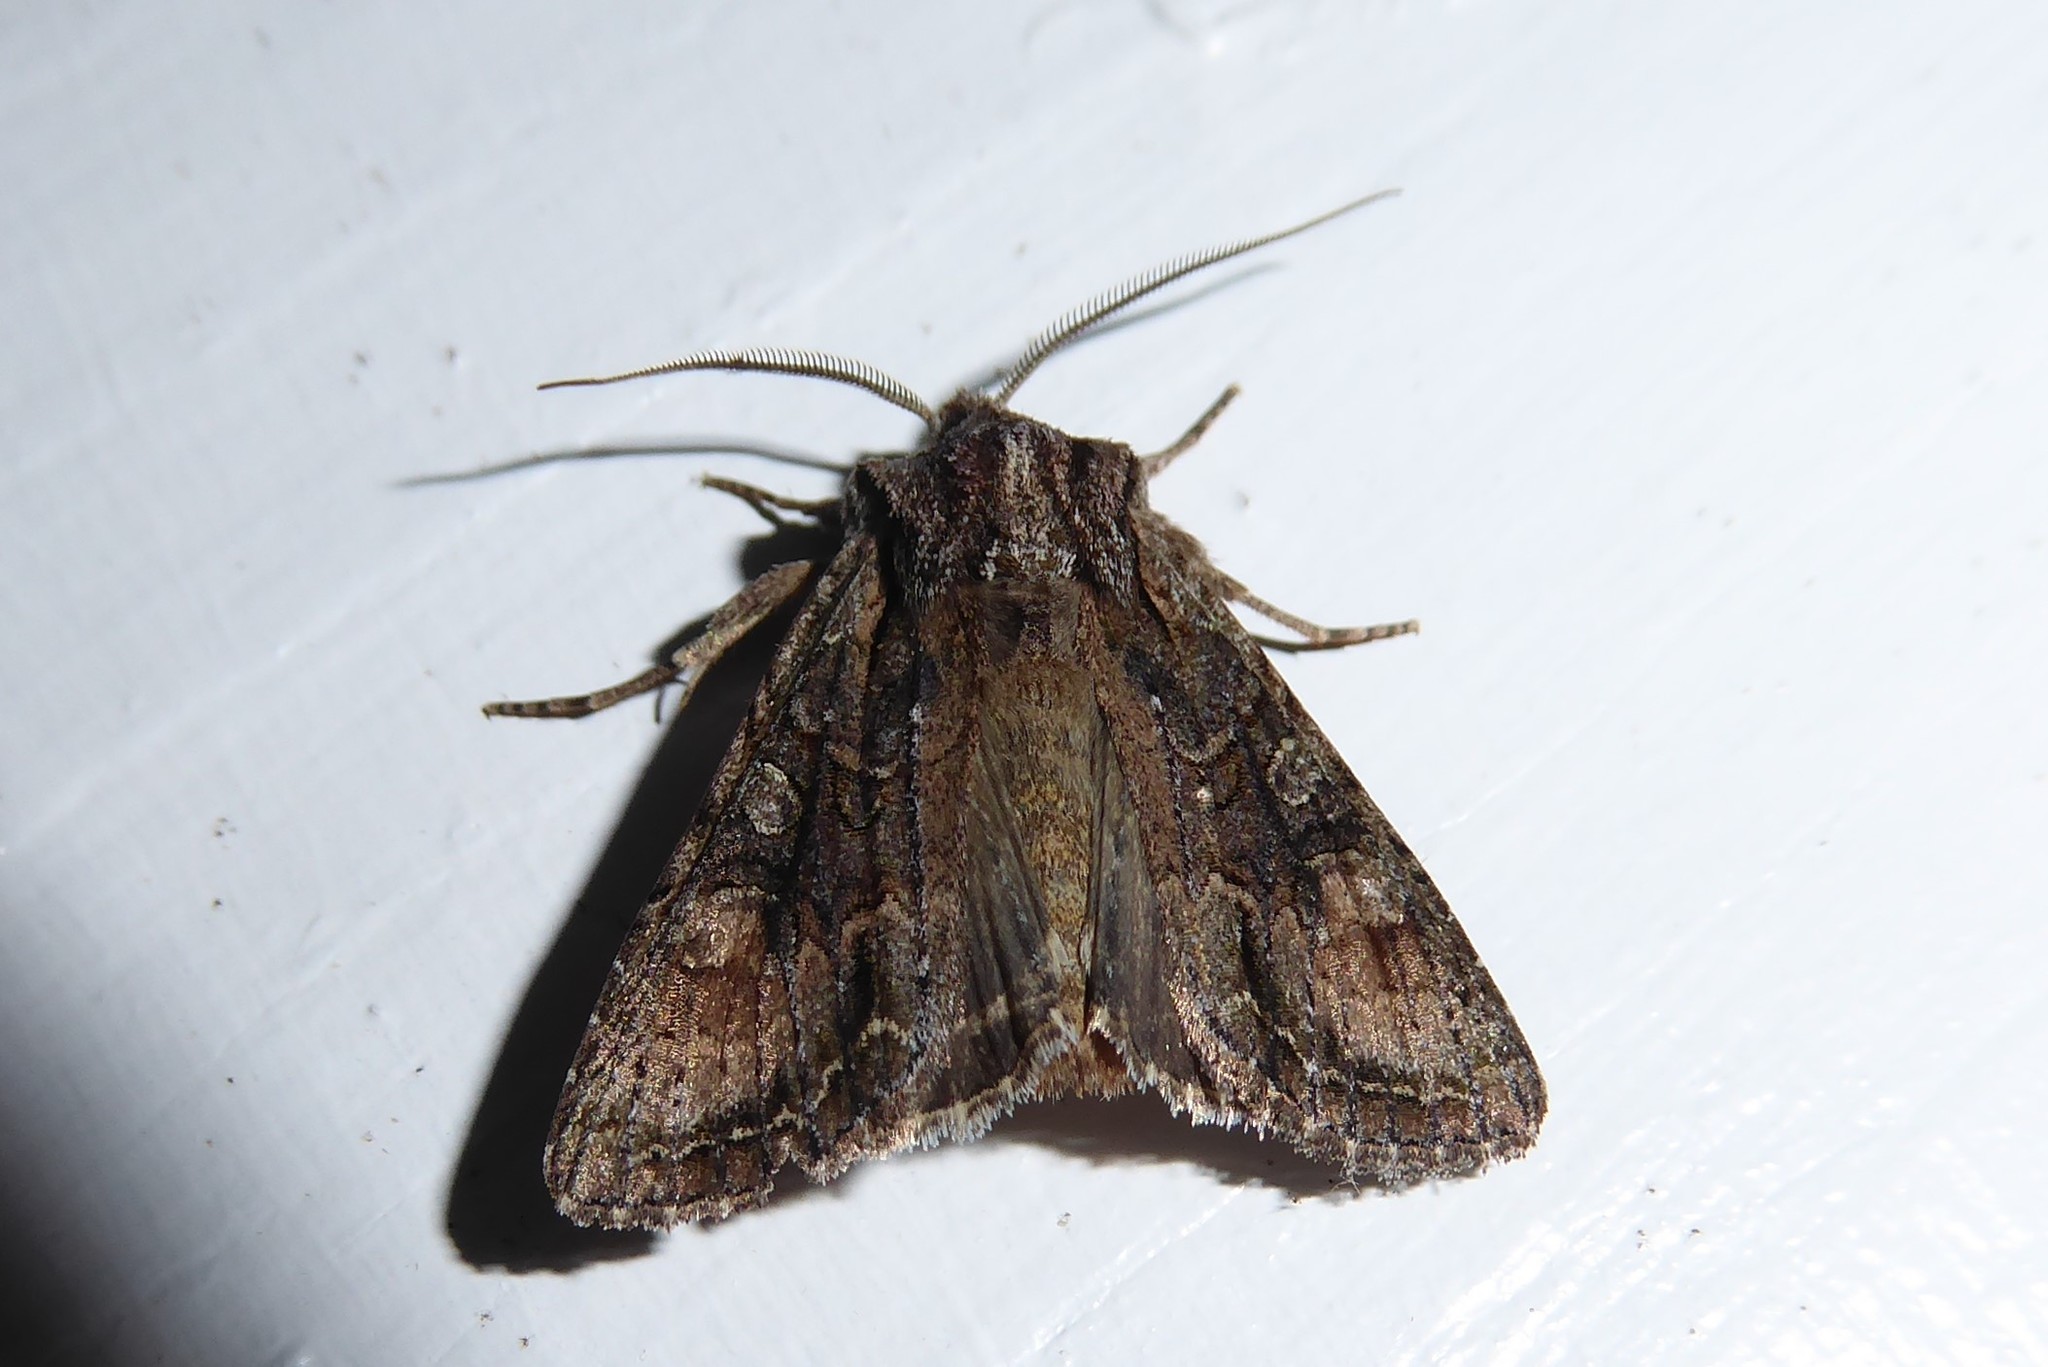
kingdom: Animalia
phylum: Arthropoda
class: Insecta
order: Lepidoptera
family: Noctuidae
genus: Ichneutica
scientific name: Ichneutica mutans
